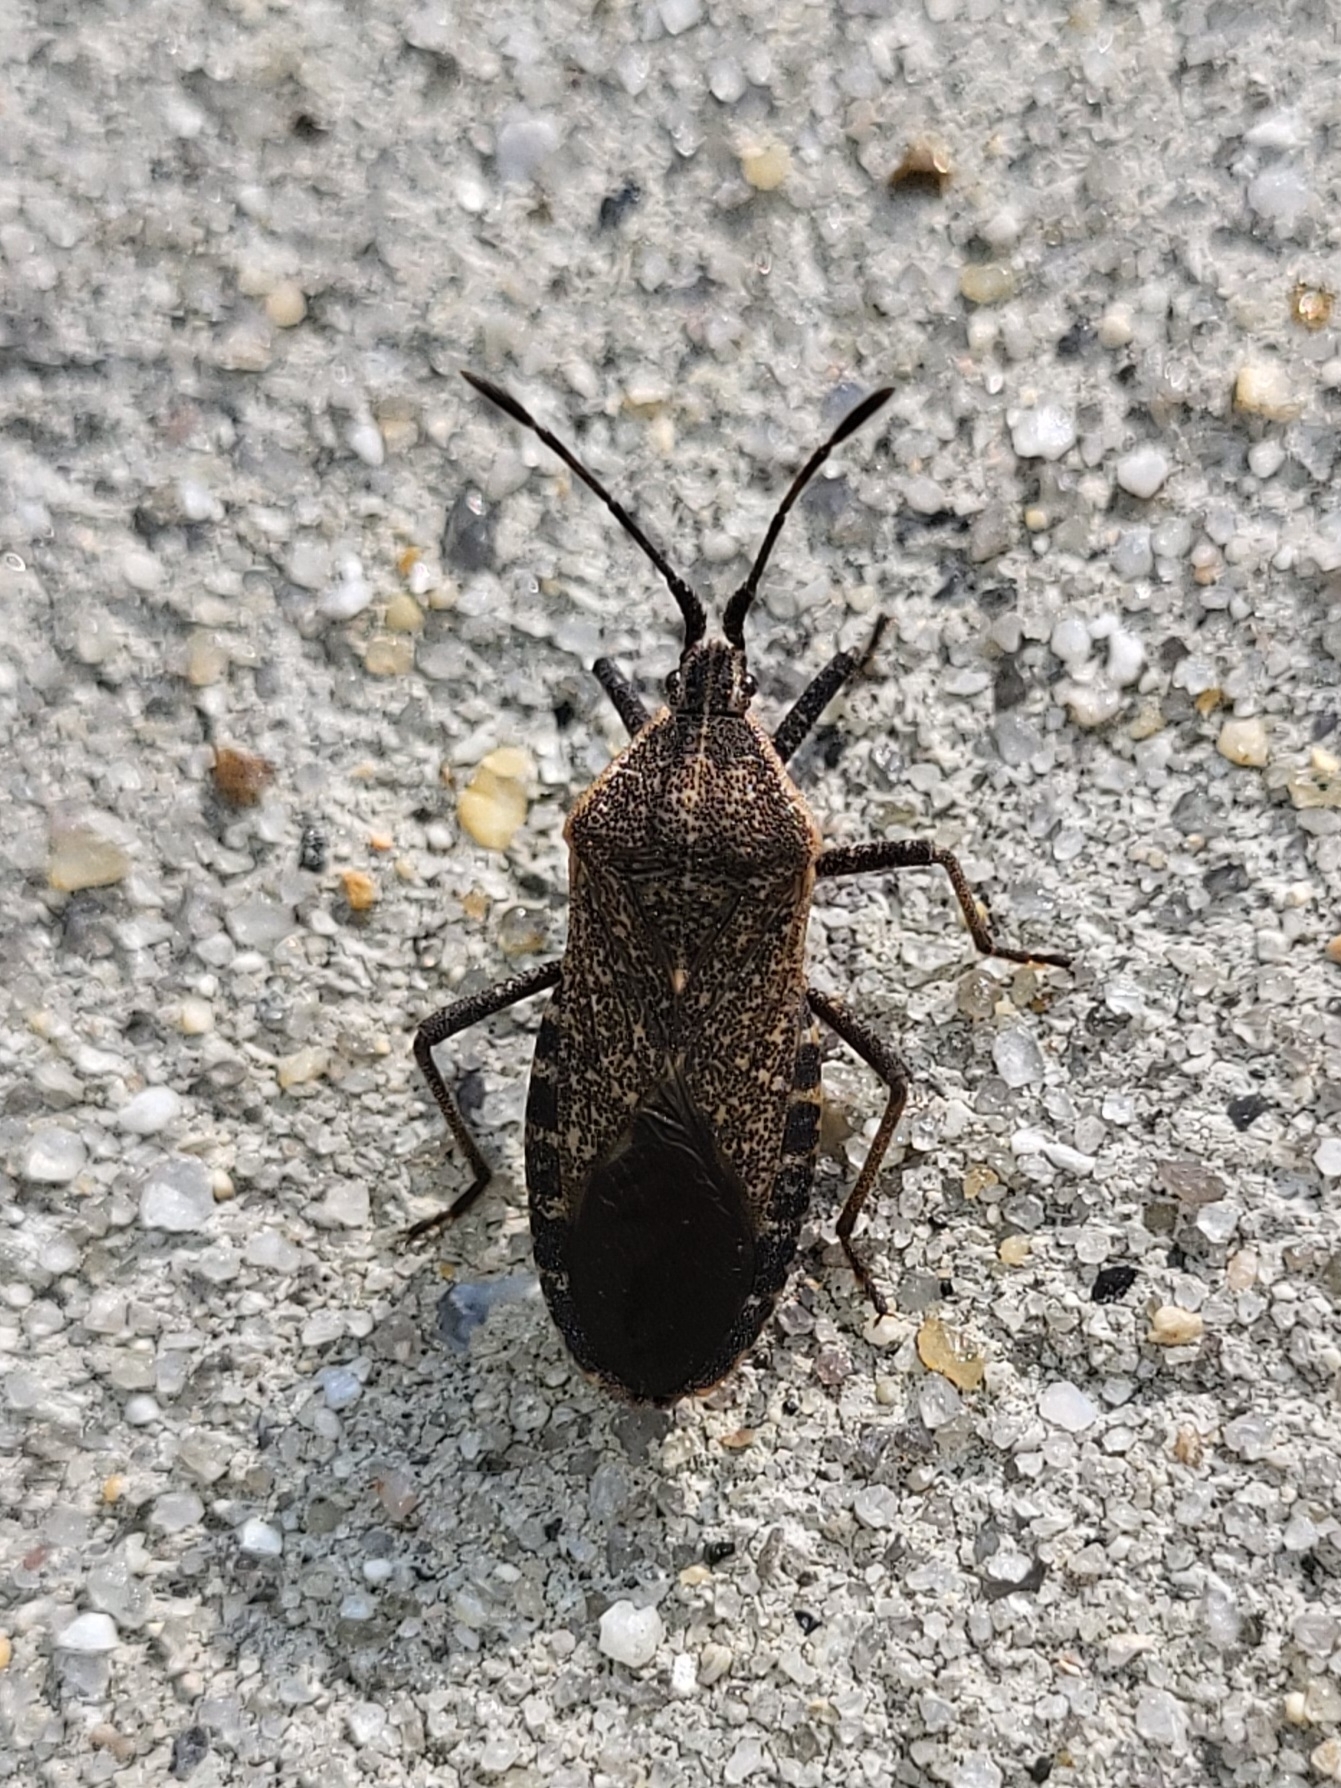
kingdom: Animalia
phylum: Arthropoda
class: Insecta
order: Hemiptera
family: Coreidae
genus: Anasa
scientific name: Anasa tristis
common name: Squash bug
